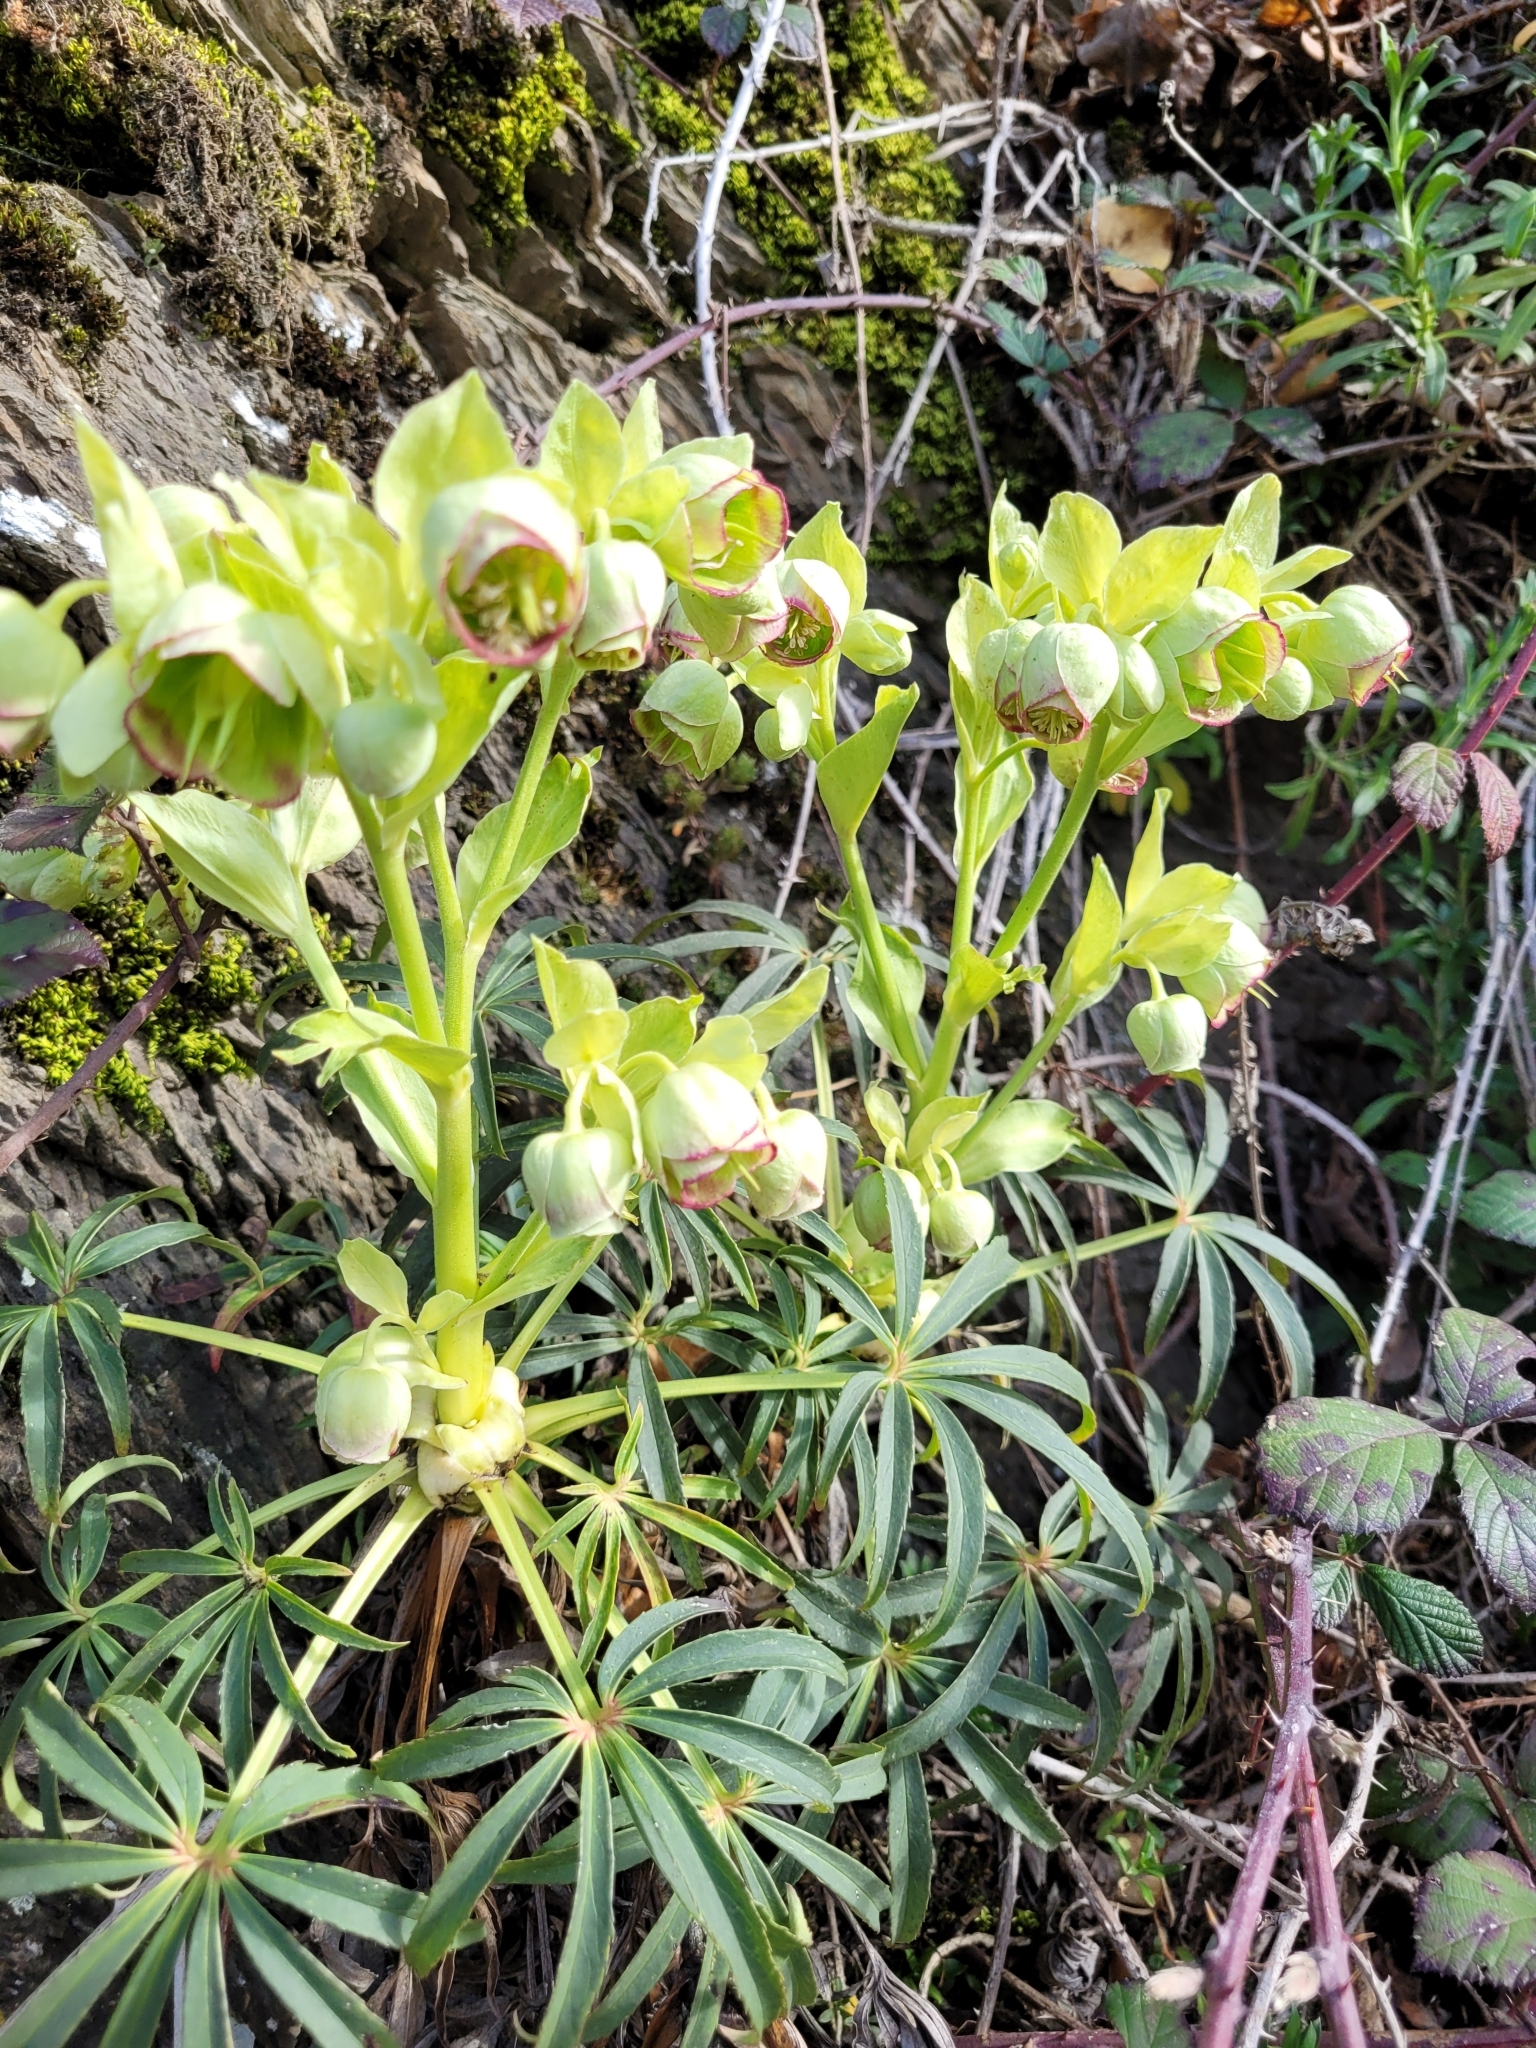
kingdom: Plantae
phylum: Tracheophyta
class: Magnoliopsida
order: Ranunculales
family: Ranunculaceae
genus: Helleborus
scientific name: Helleborus foetidus
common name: Stinking hellebore
